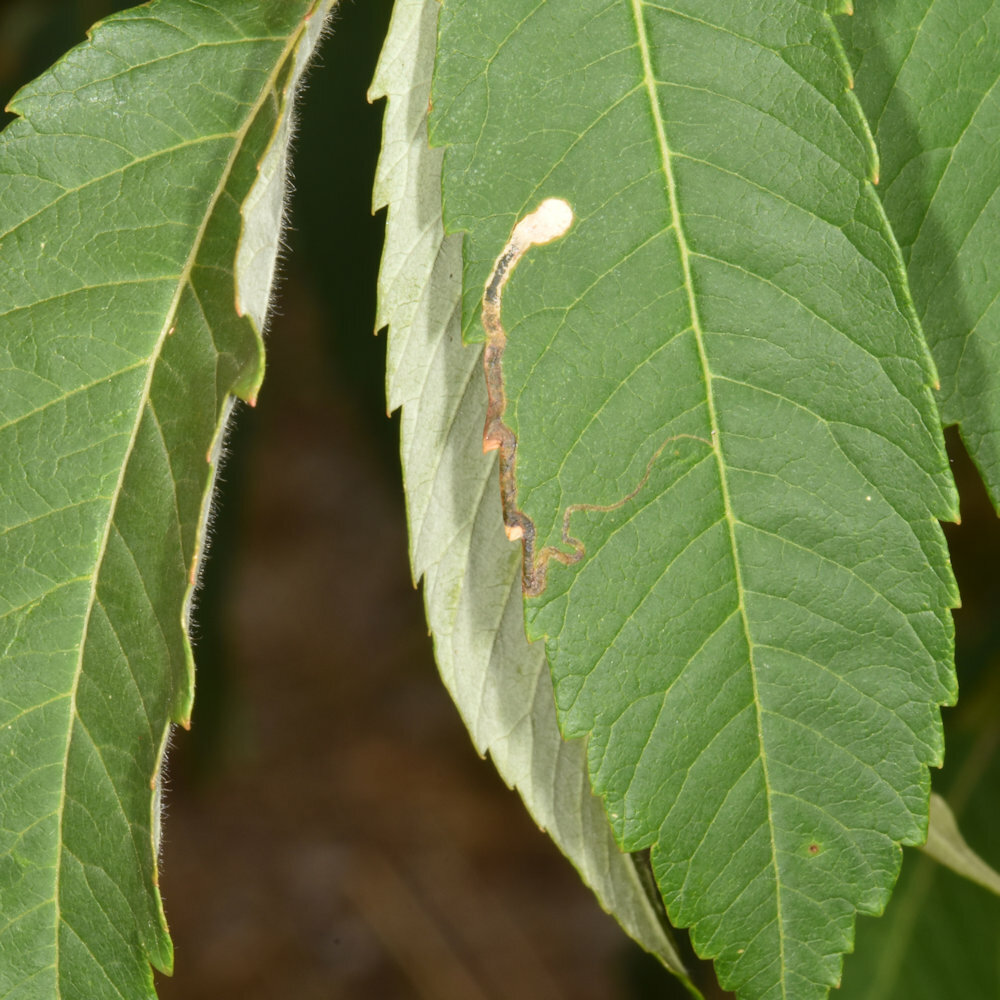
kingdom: Animalia
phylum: Arthropoda
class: Insecta
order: Lepidoptera
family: Nepticulidae
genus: Stigmella
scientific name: Stigmella intermedia
